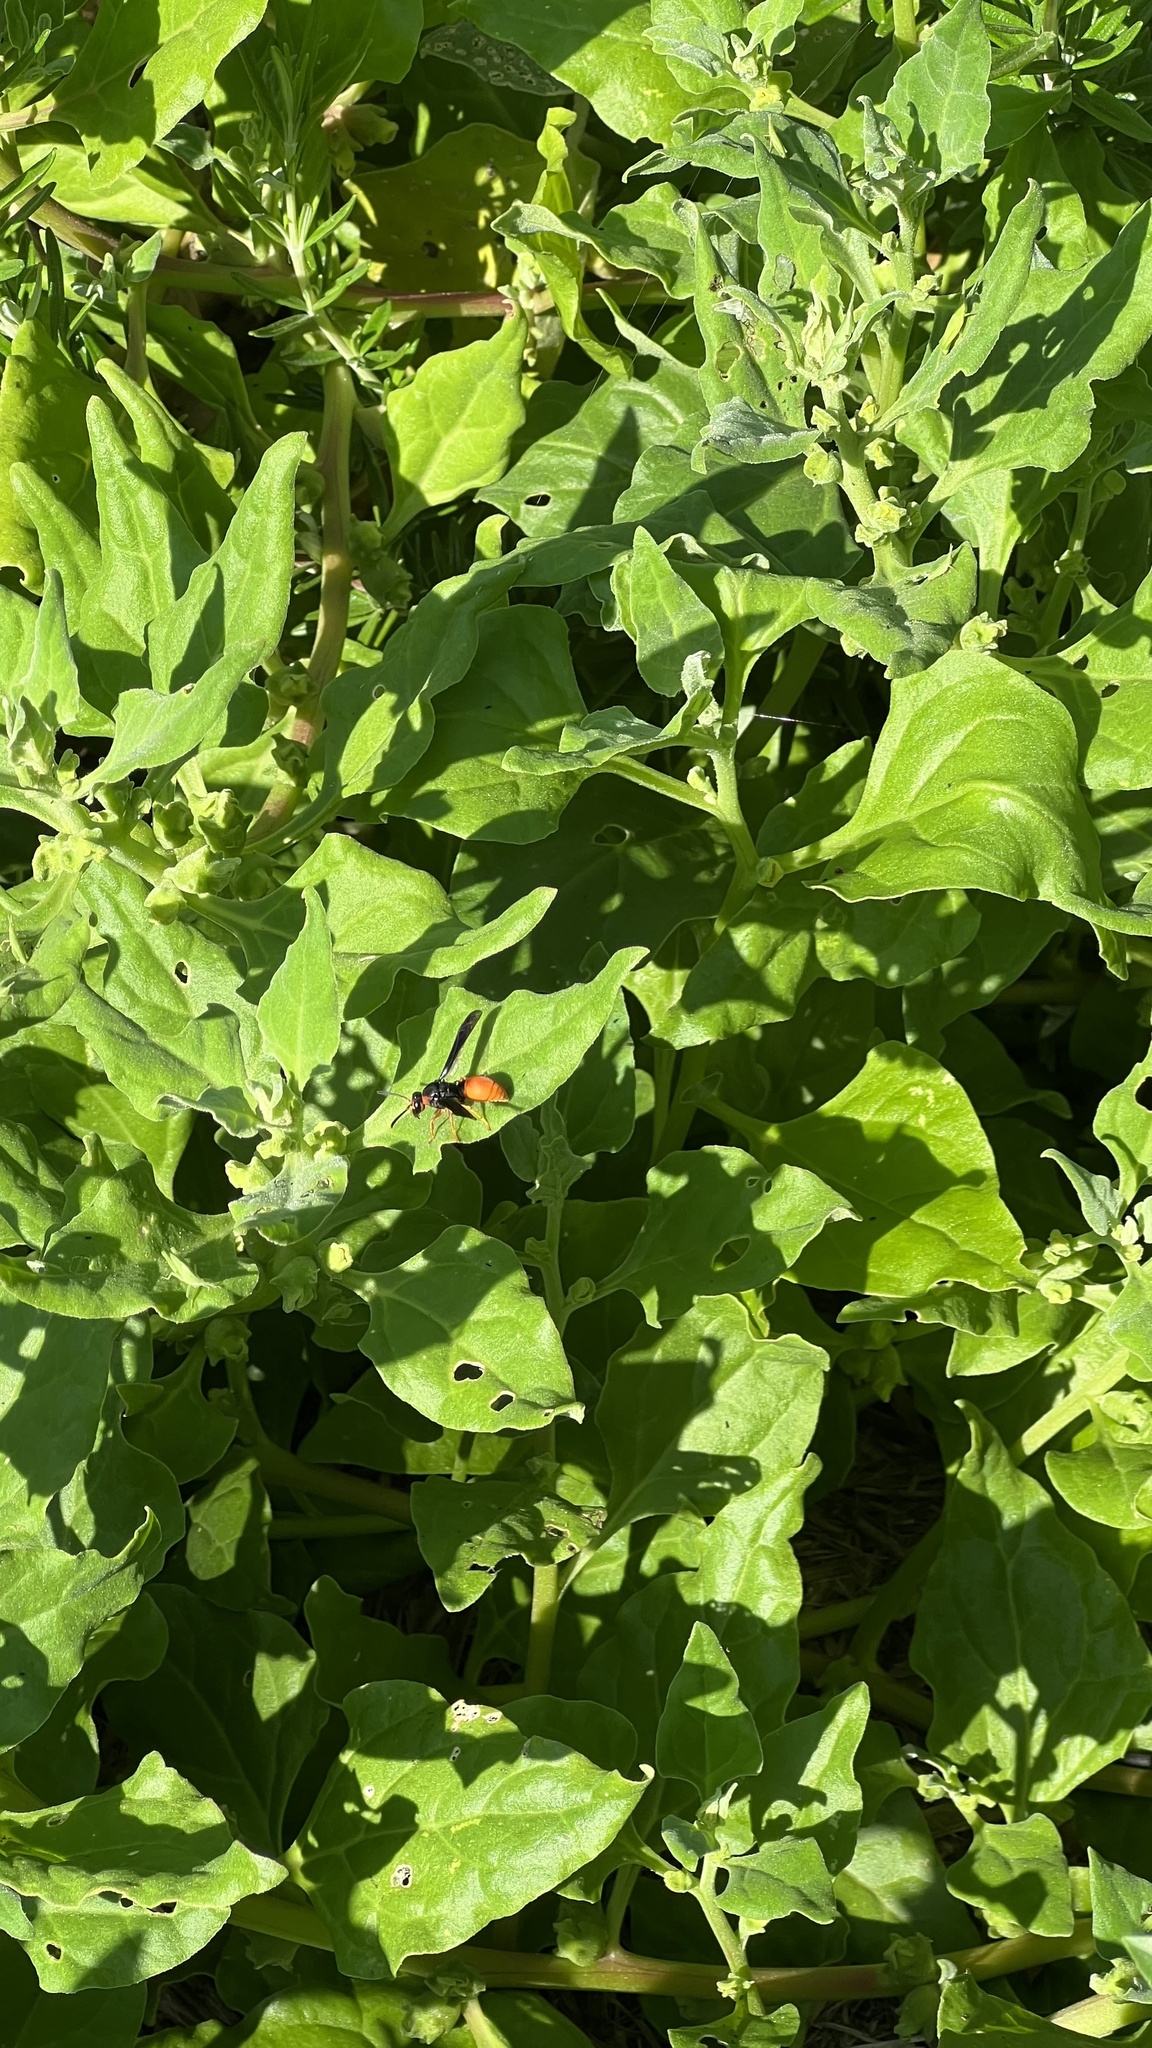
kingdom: Animalia
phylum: Arthropoda
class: Insecta
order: Hymenoptera
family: Eumenidae
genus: Pseudabispa
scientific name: Pseudabispa bicolor
